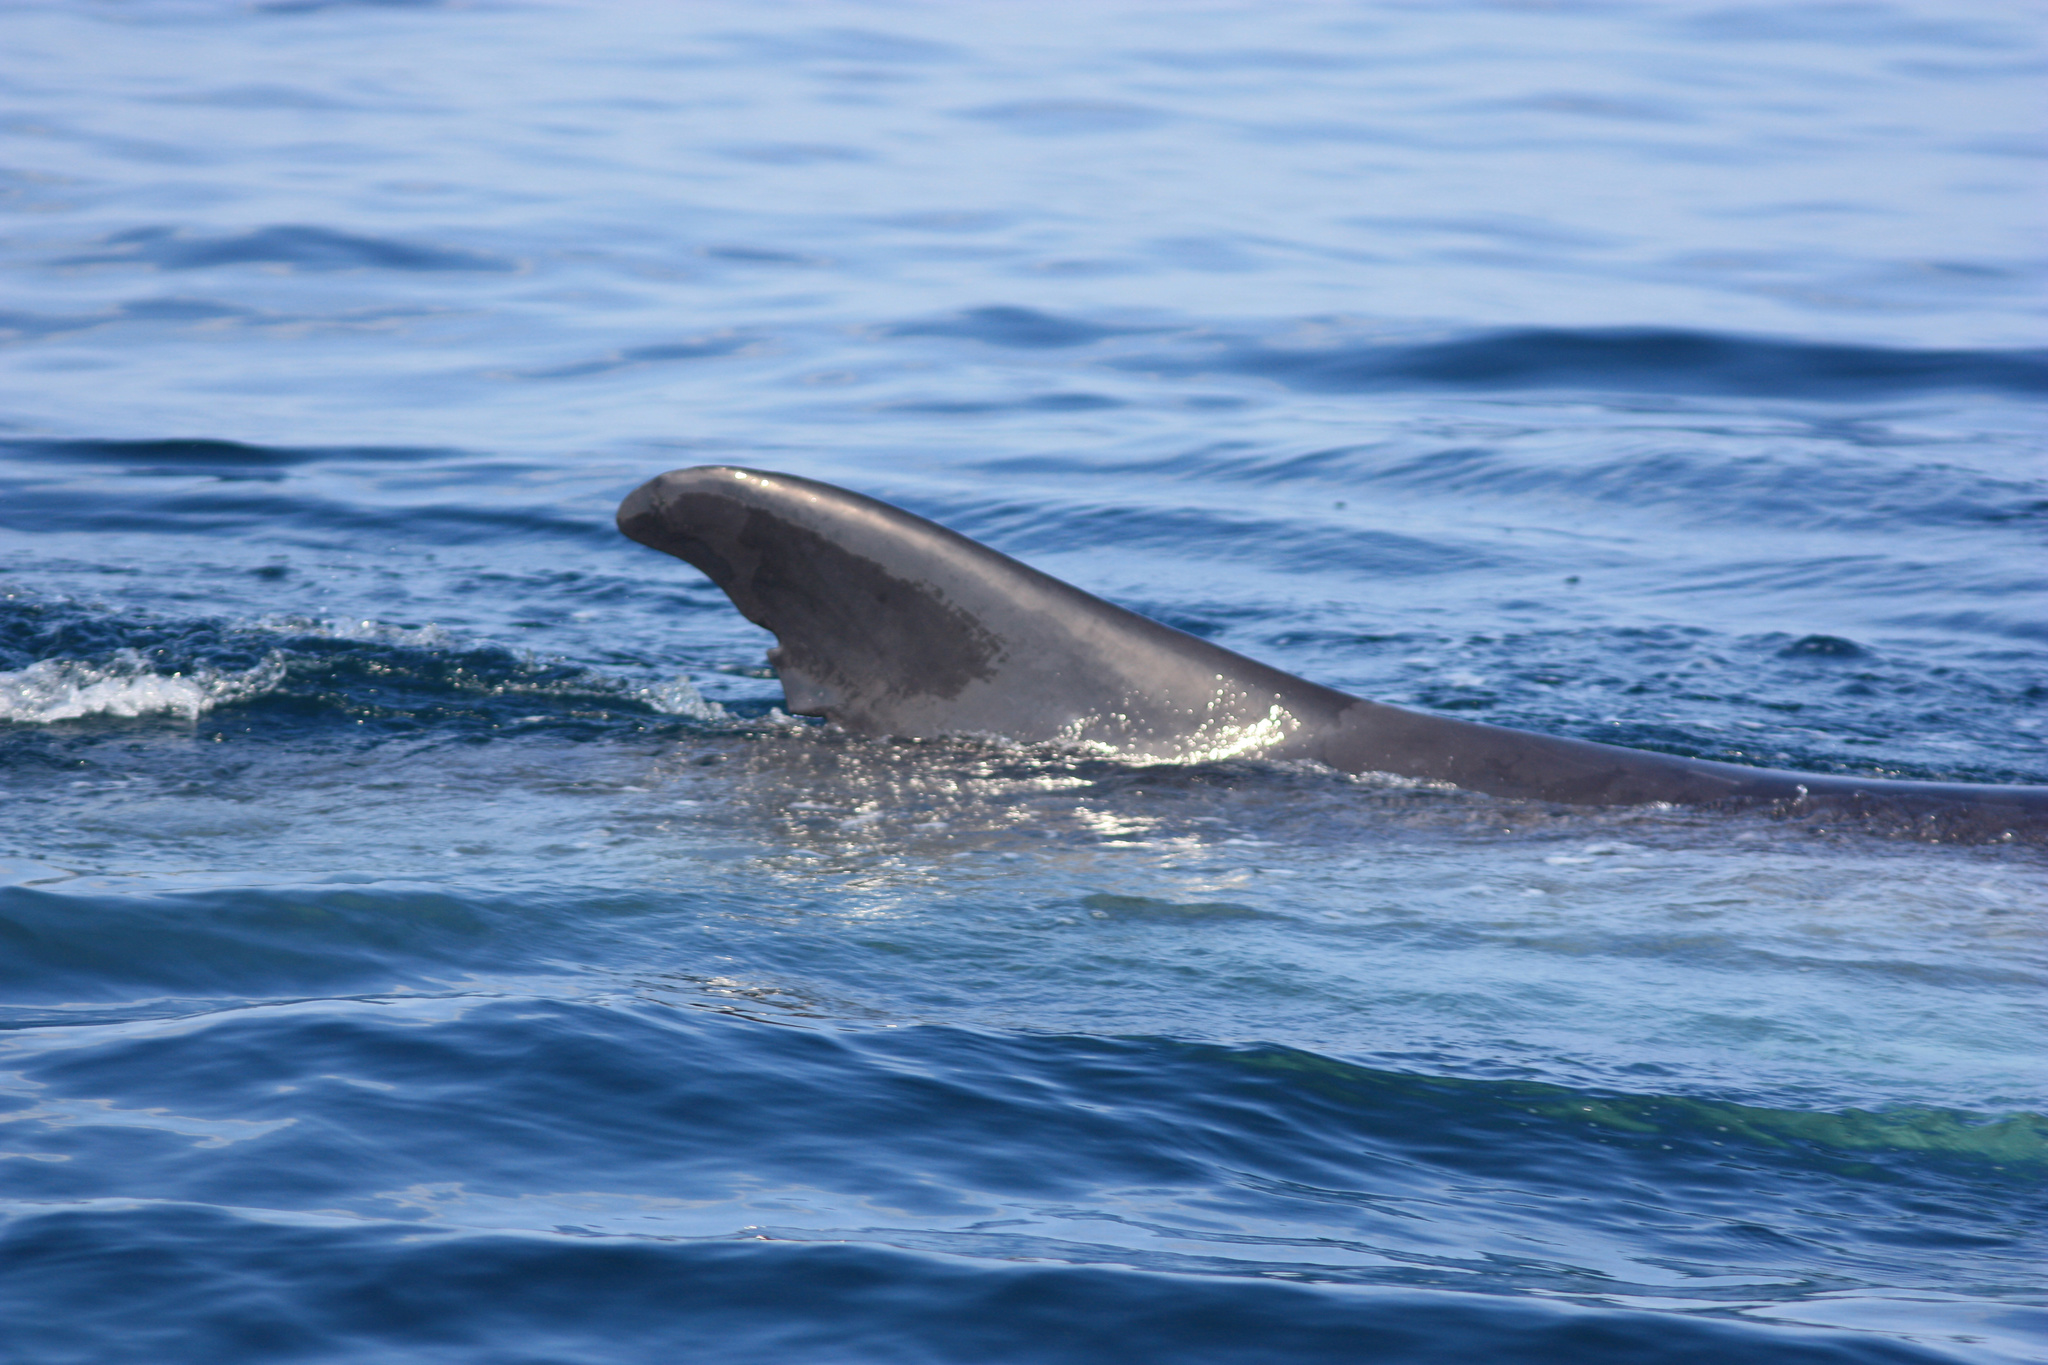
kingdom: Animalia
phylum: Chordata
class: Mammalia
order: Cetacea
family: Balaenopteridae
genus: Balaenoptera
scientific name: Balaenoptera physalus
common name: Fin whale
